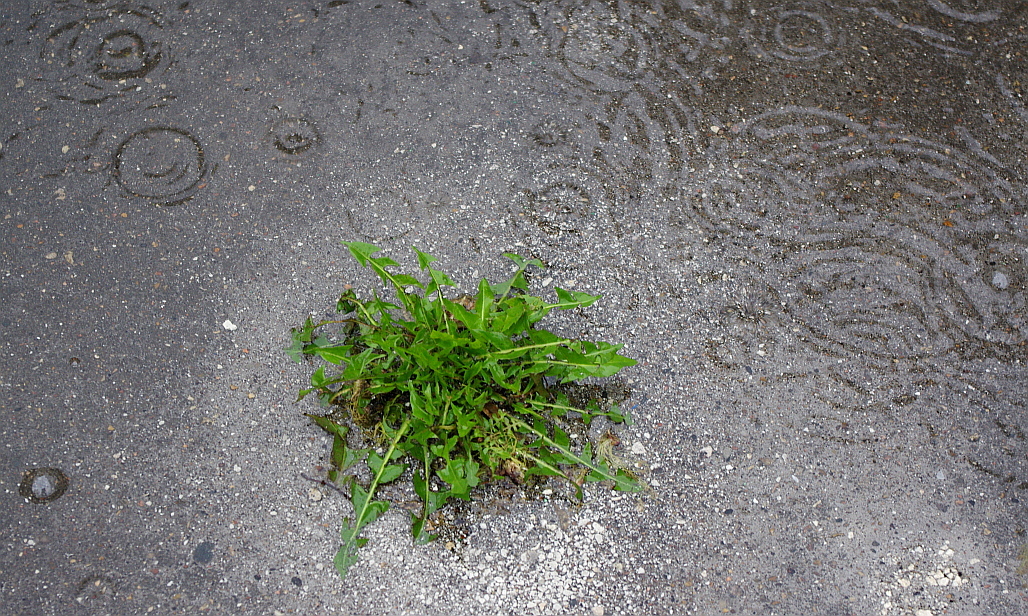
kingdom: Plantae
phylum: Tracheophyta
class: Magnoliopsida
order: Asterales
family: Asteraceae
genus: Taraxacum
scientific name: Taraxacum officinale
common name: Common dandelion
